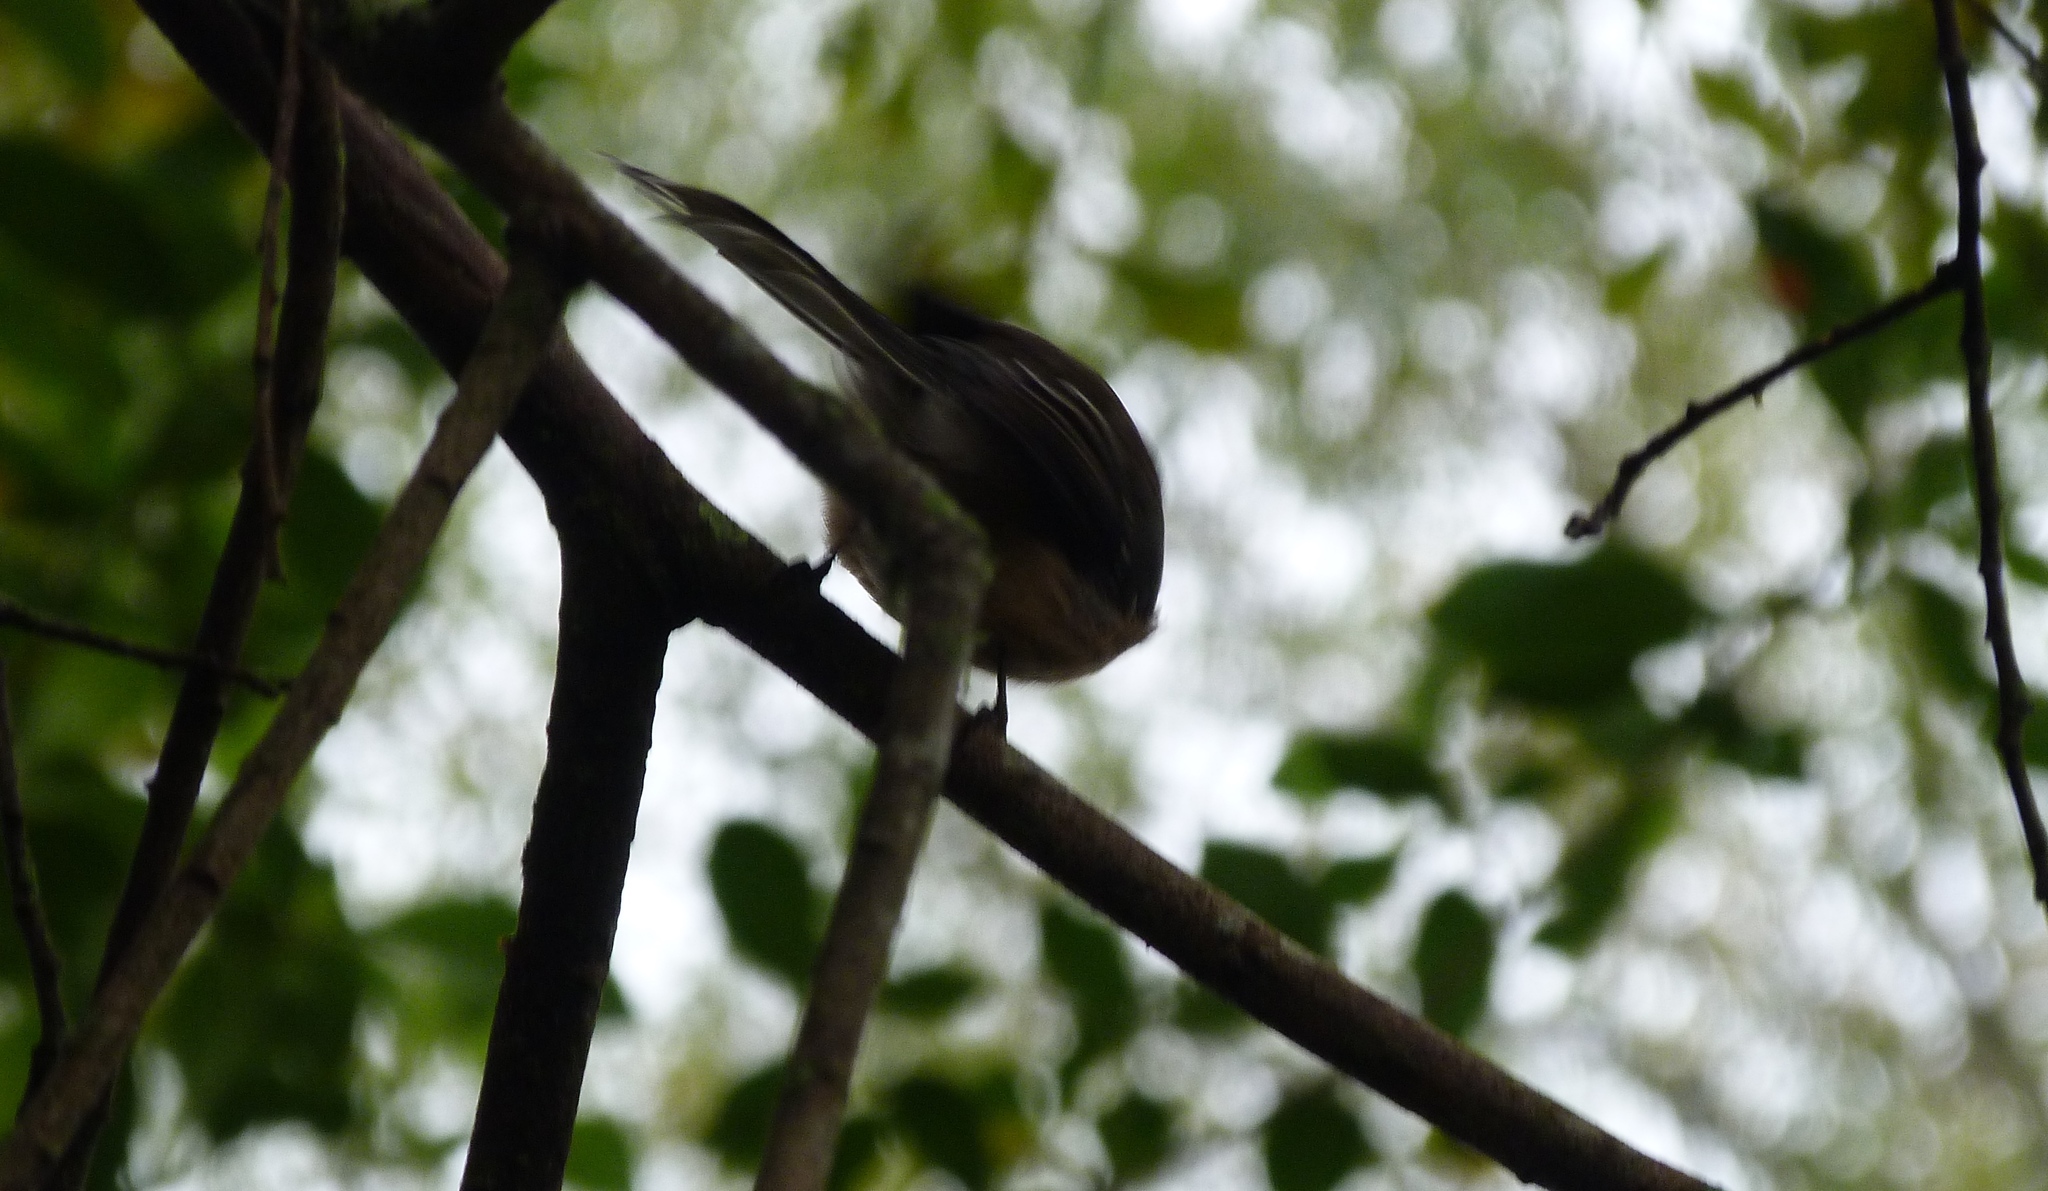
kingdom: Animalia
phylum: Chordata
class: Aves
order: Passeriformes
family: Rhipiduridae
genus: Rhipidura
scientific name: Rhipidura fuliginosa
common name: New zealand fantail
